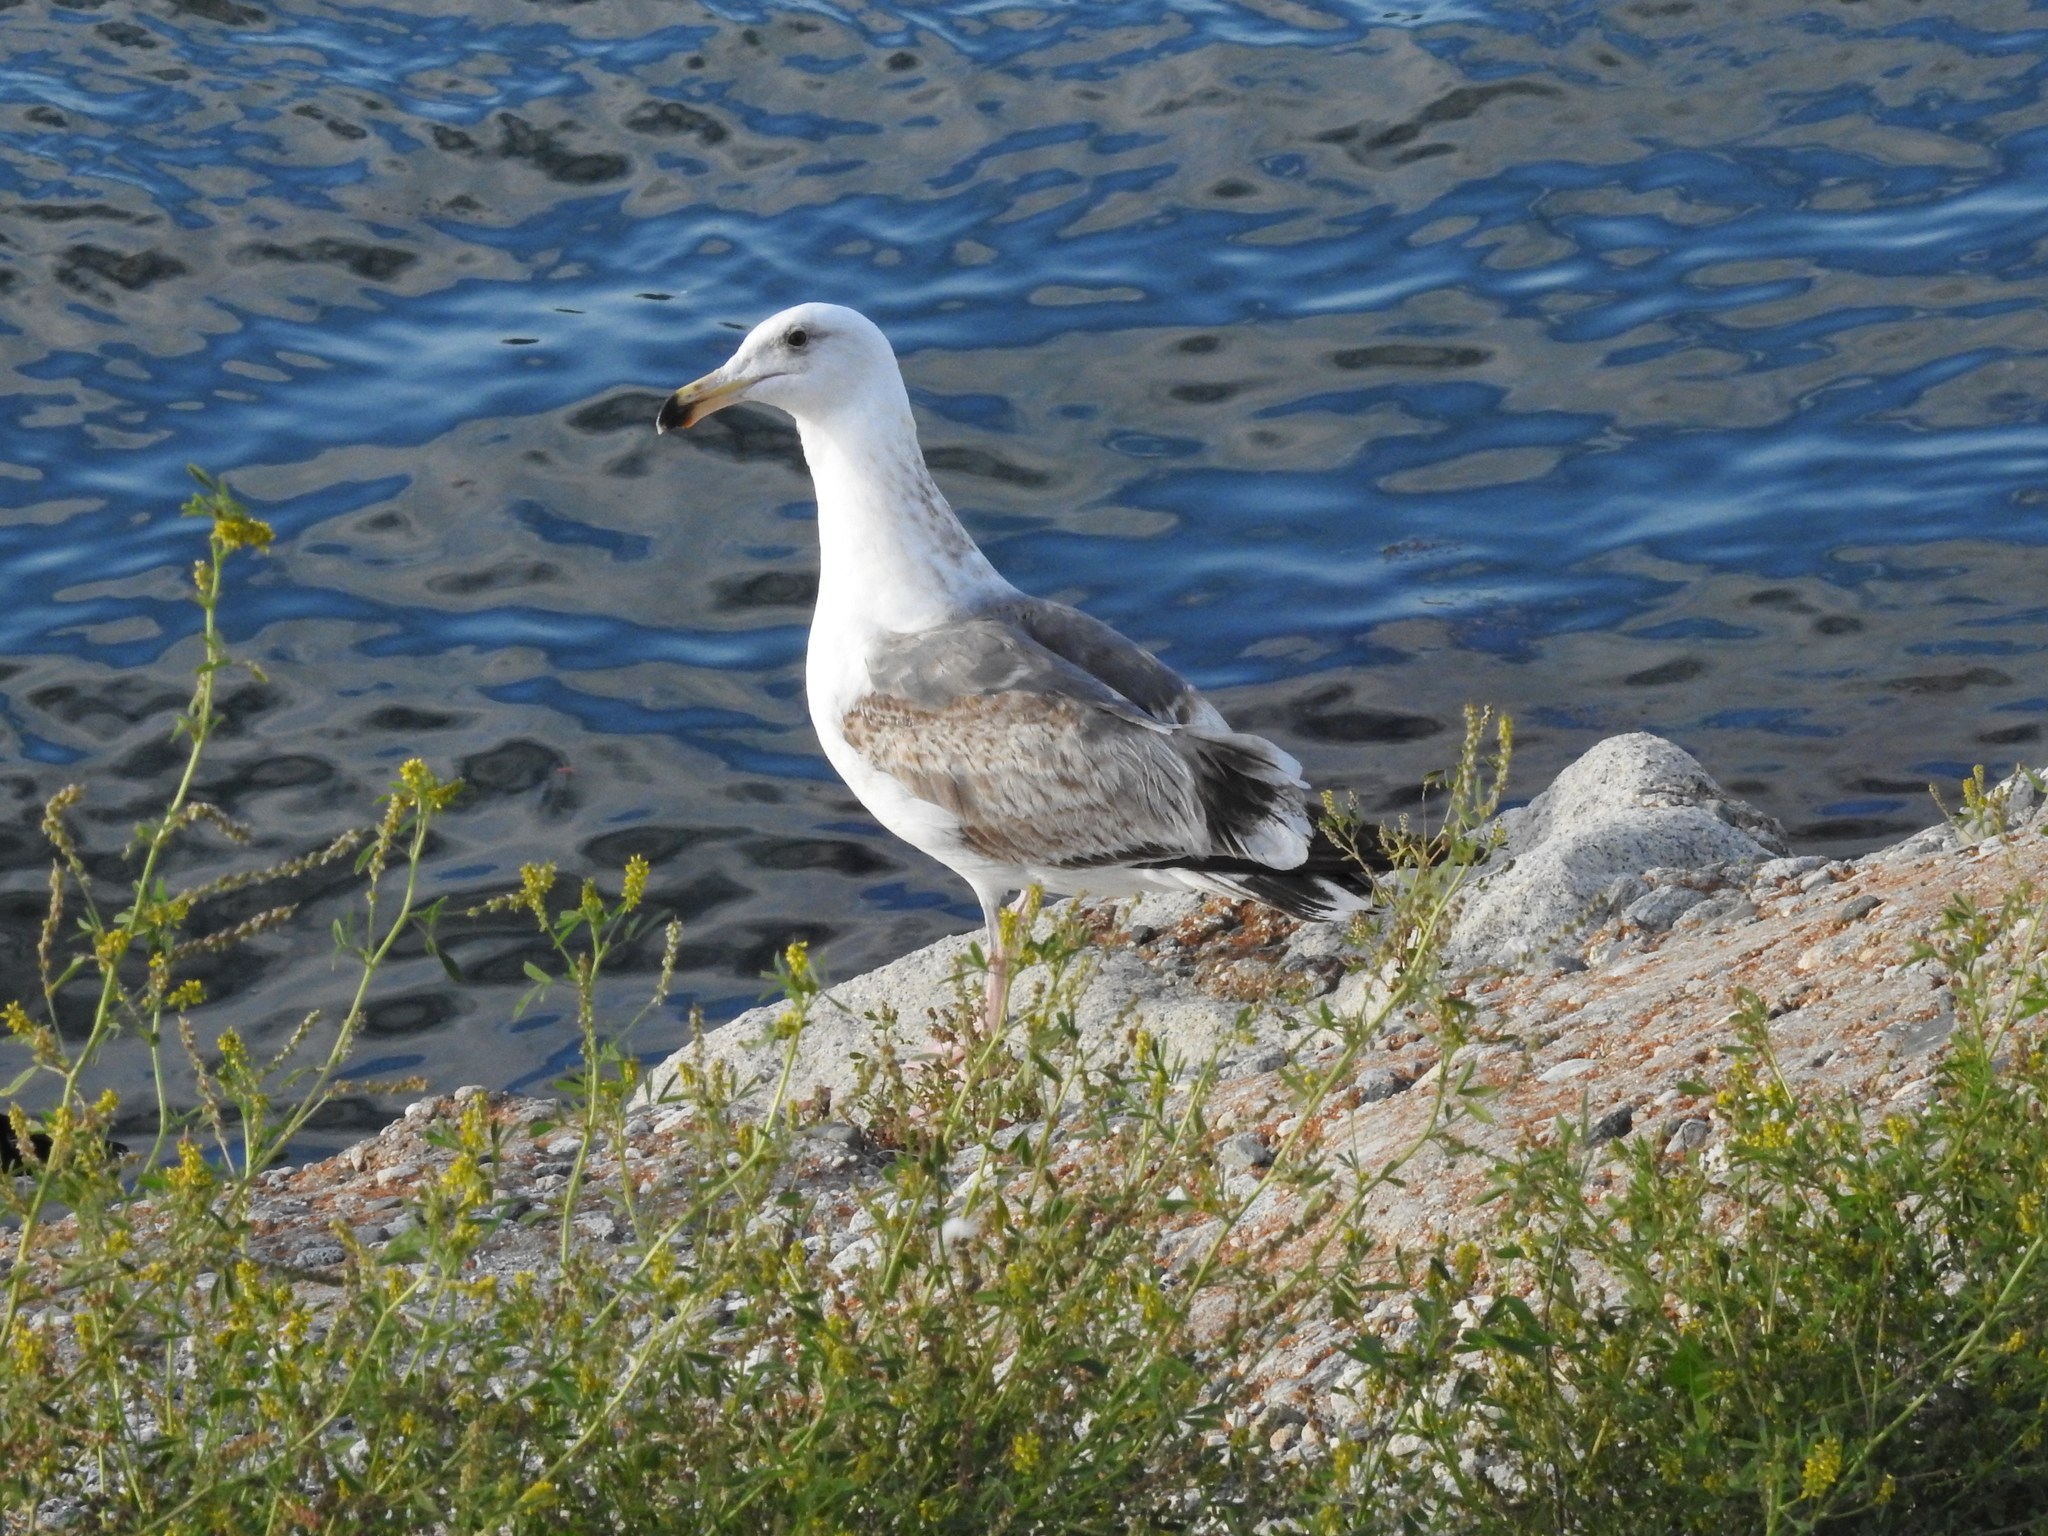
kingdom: Animalia
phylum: Chordata
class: Aves
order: Charadriiformes
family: Laridae
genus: Larus
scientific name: Larus occidentalis
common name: Western gull
